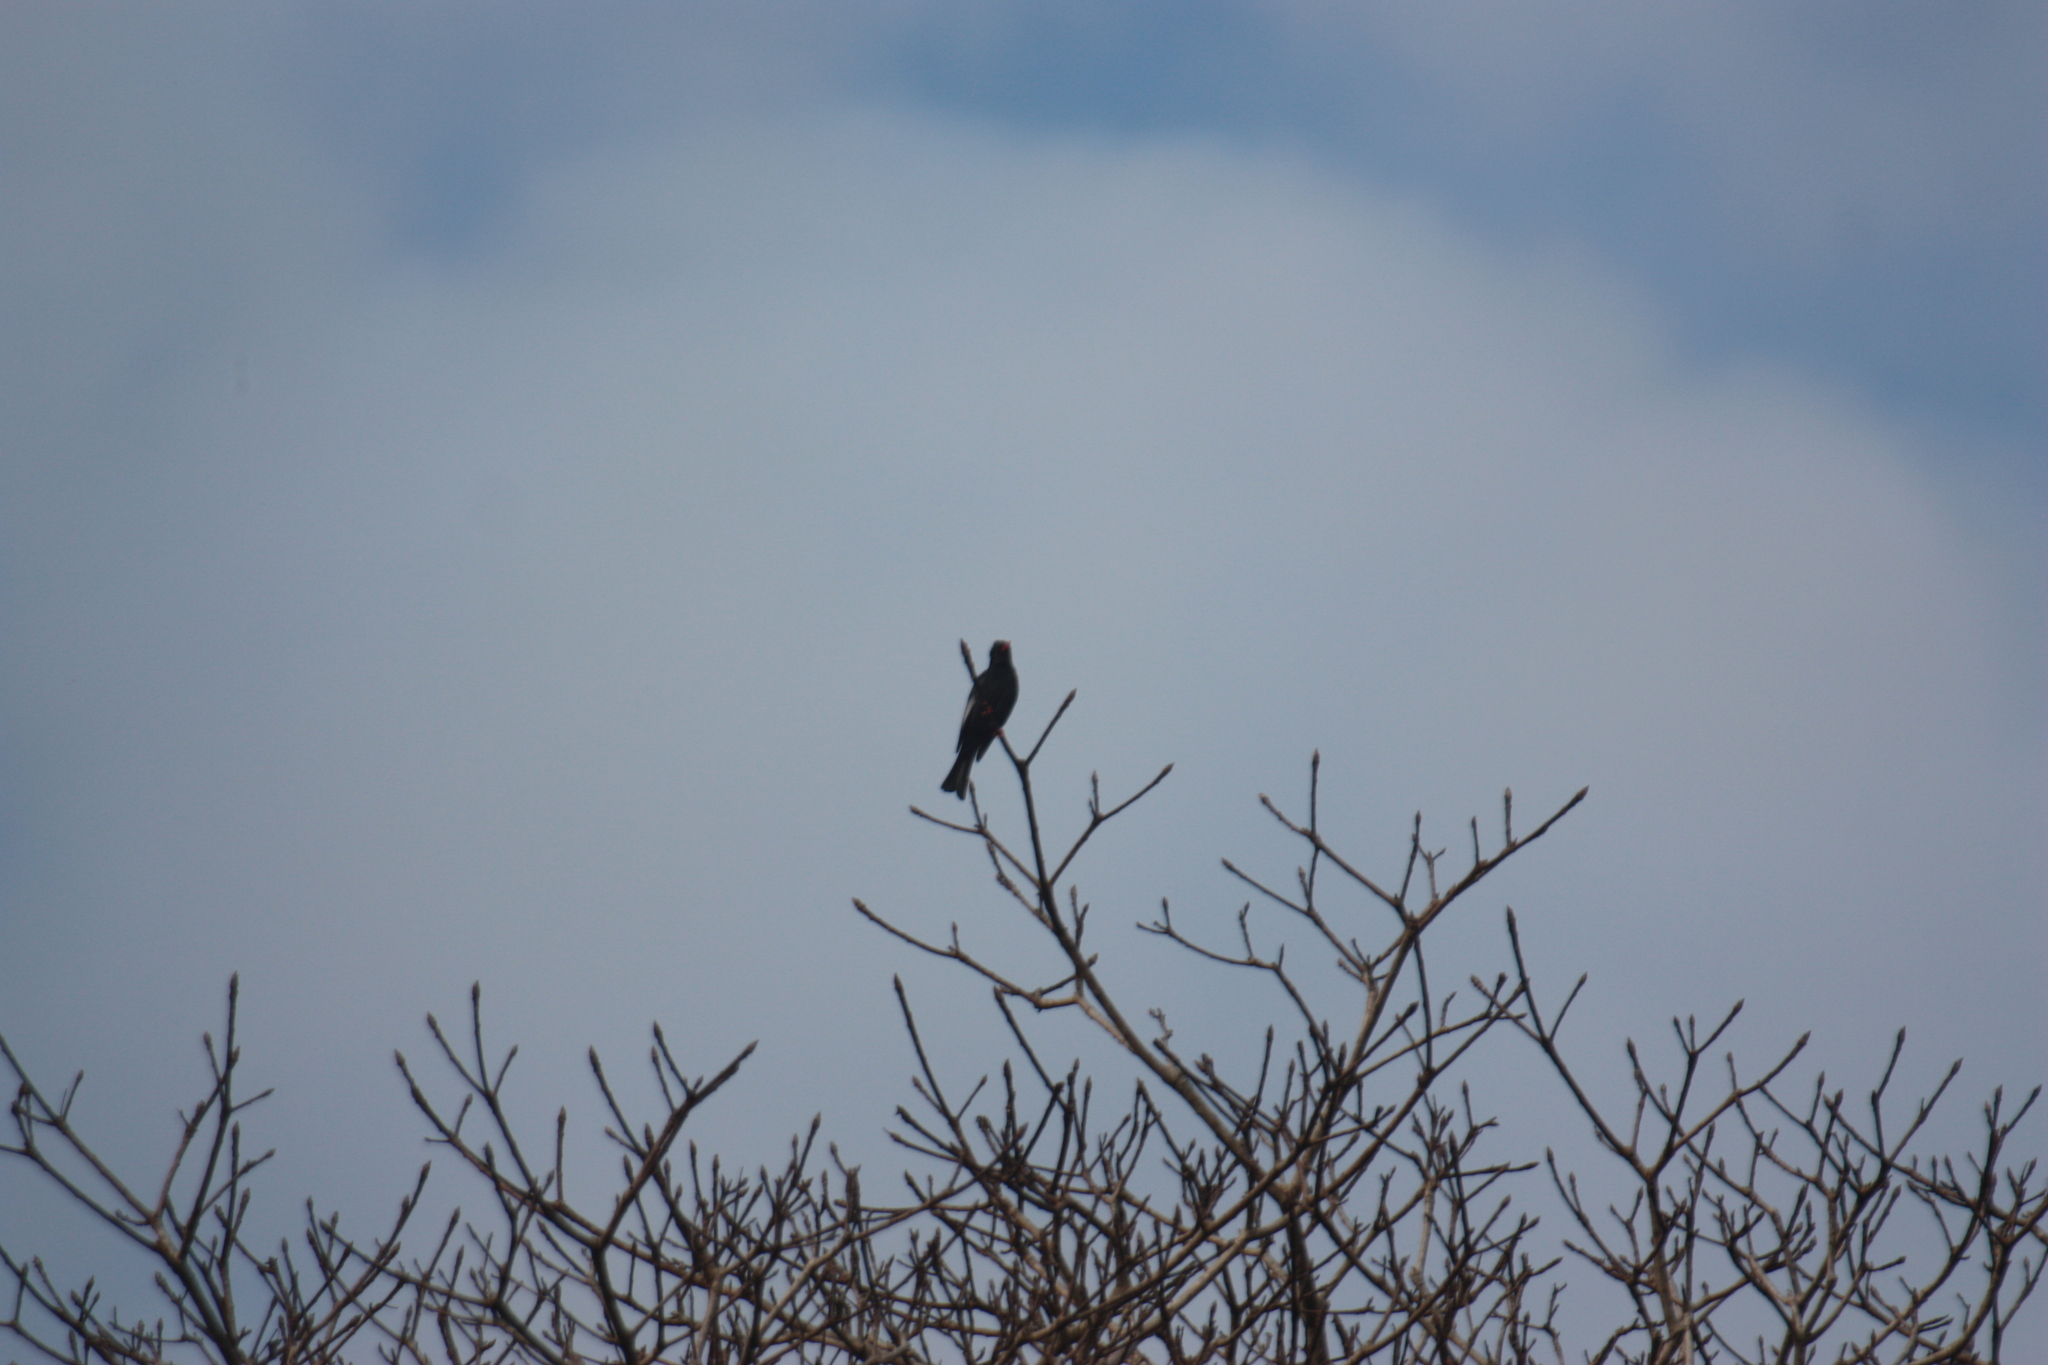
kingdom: Animalia
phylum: Chordata
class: Aves
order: Passeriformes
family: Pycnonotidae
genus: Hypsipetes
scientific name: Hypsipetes leucocephalus
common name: Black bulbul
